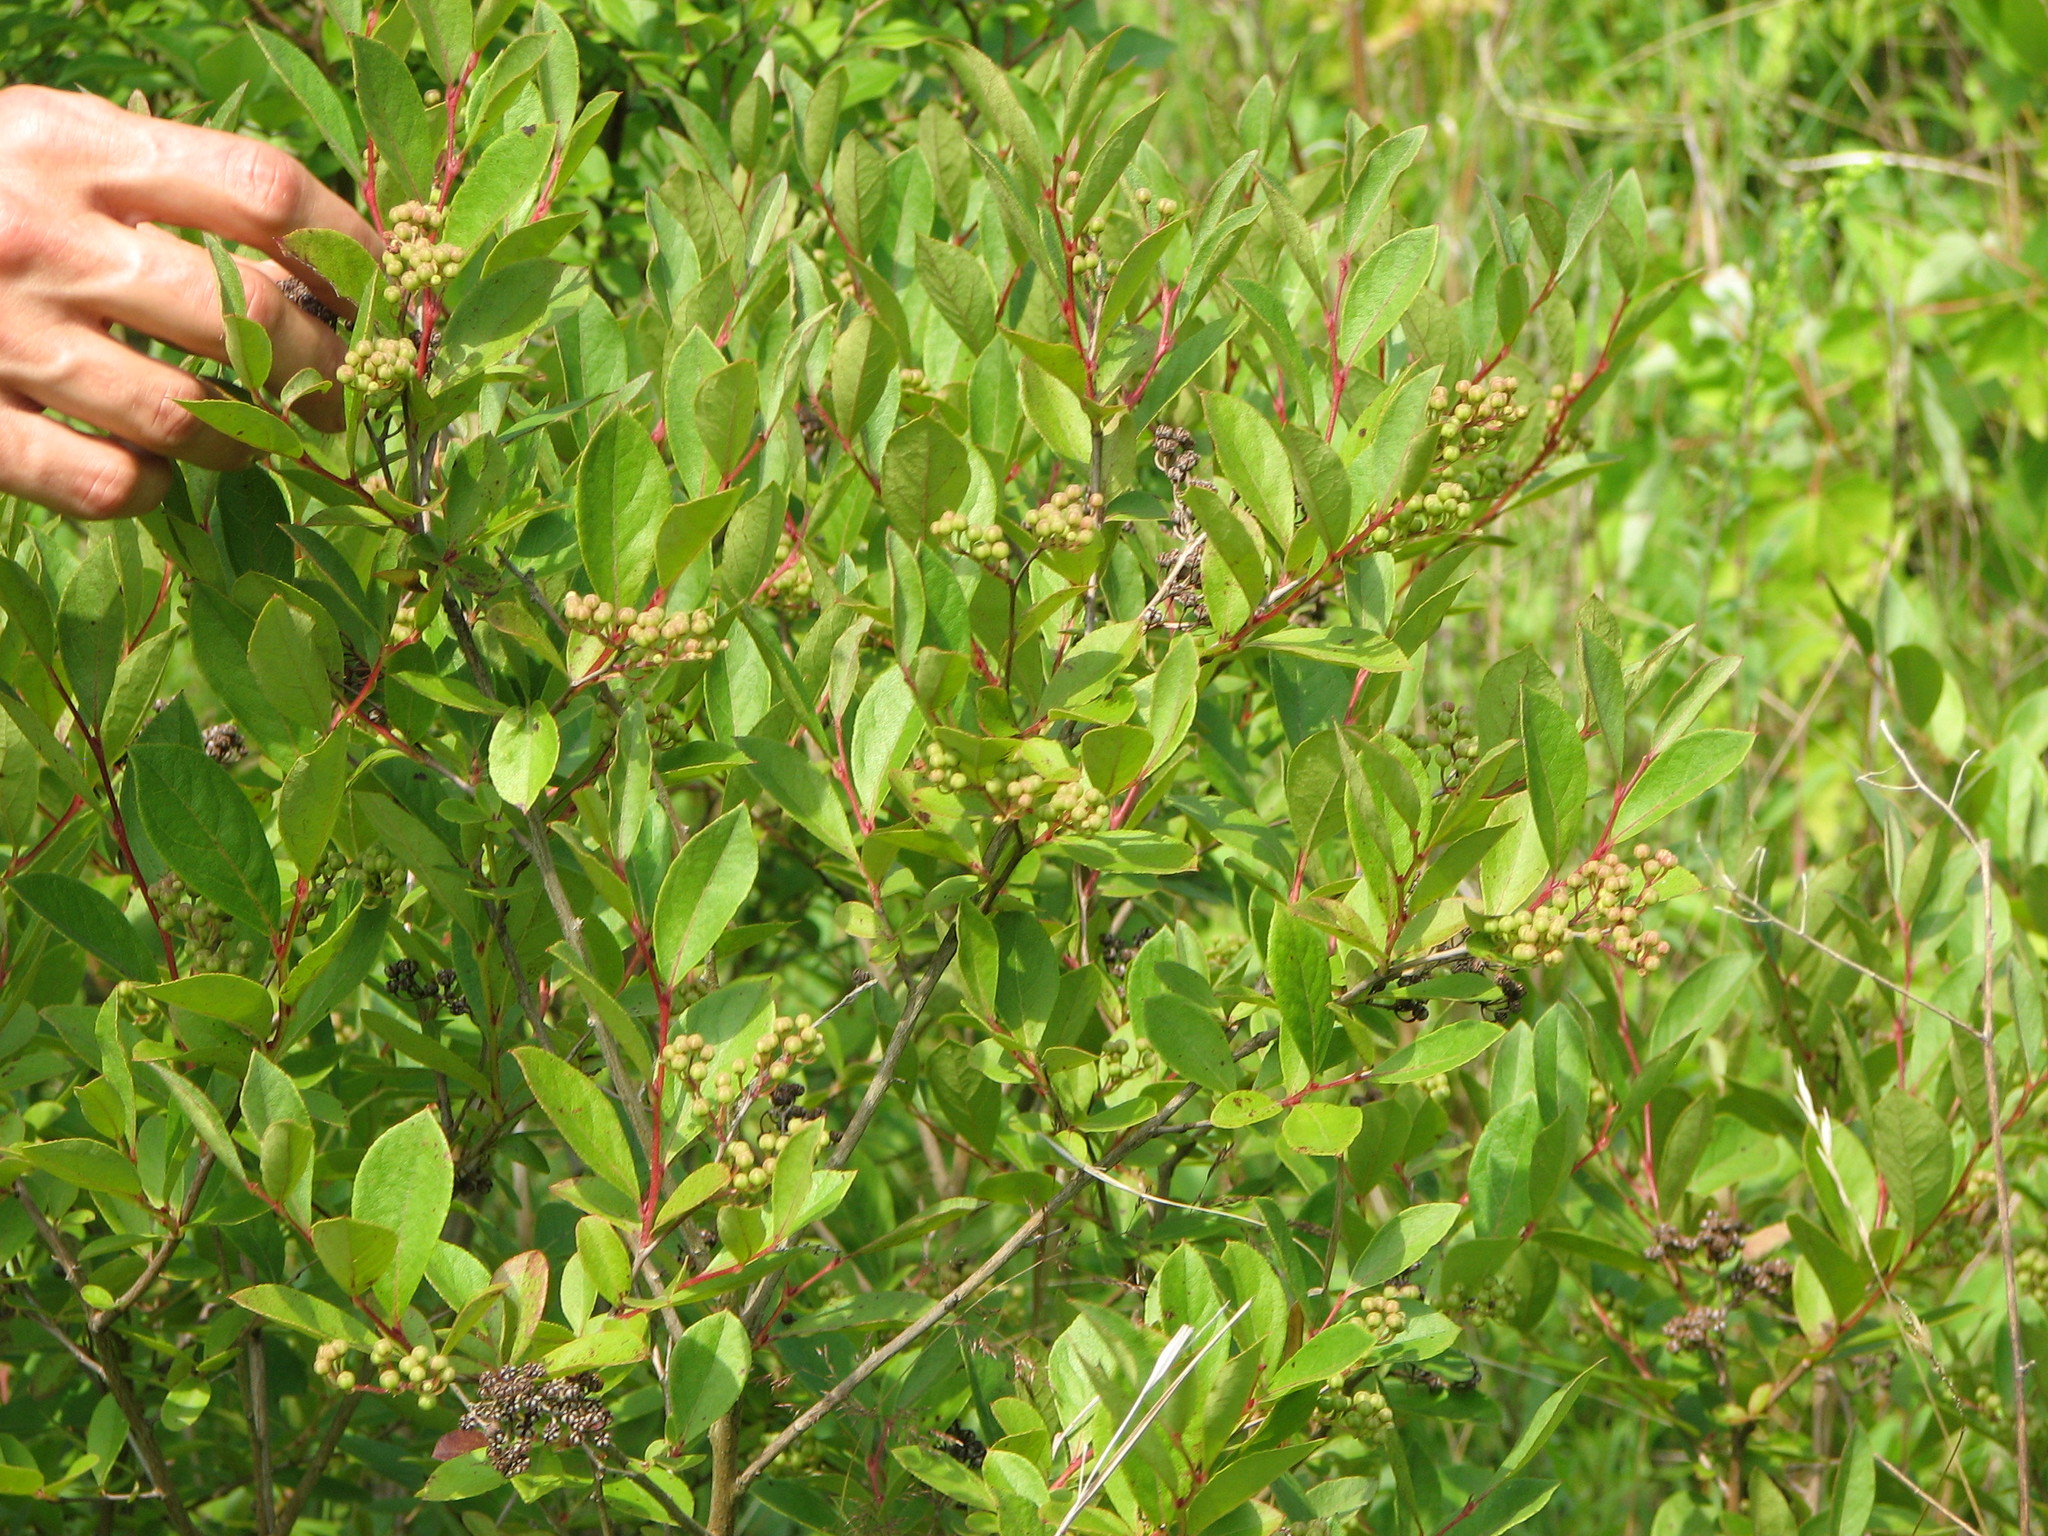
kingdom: Plantae
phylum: Tracheophyta
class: Magnoliopsida
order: Ericales
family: Ericaceae
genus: Lyonia
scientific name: Lyonia ligustrina
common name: Maleberry
